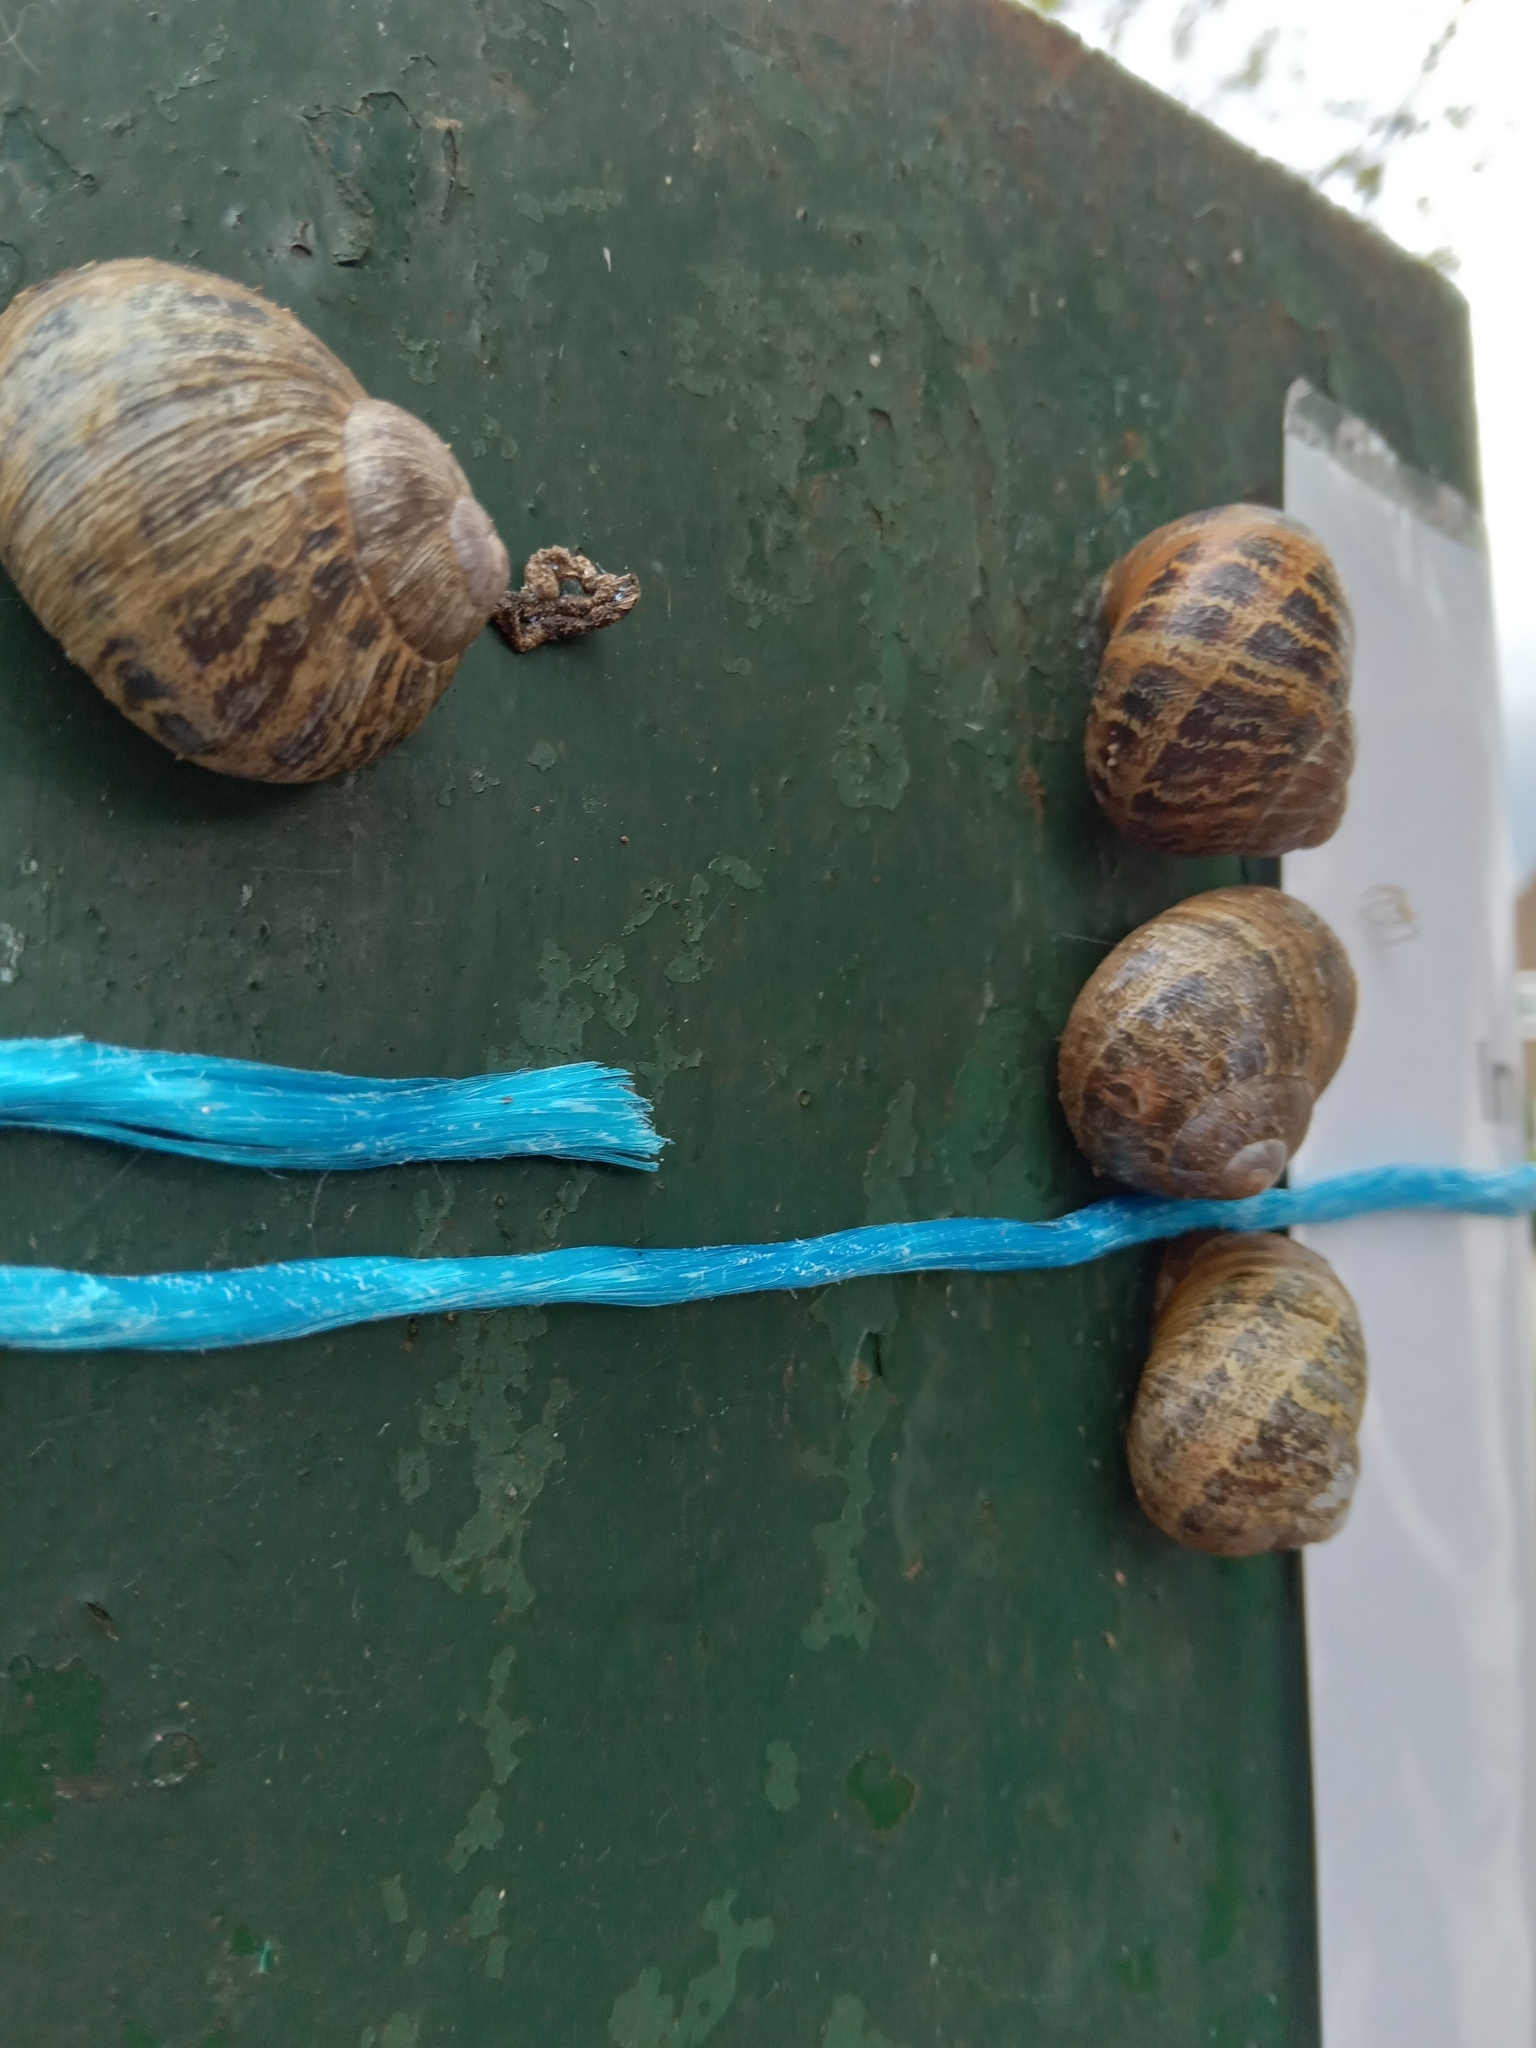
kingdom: Animalia
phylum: Mollusca
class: Gastropoda
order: Stylommatophora
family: Helicidae
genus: Cornu
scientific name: Cornu aspersum
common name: Brown garden snail
